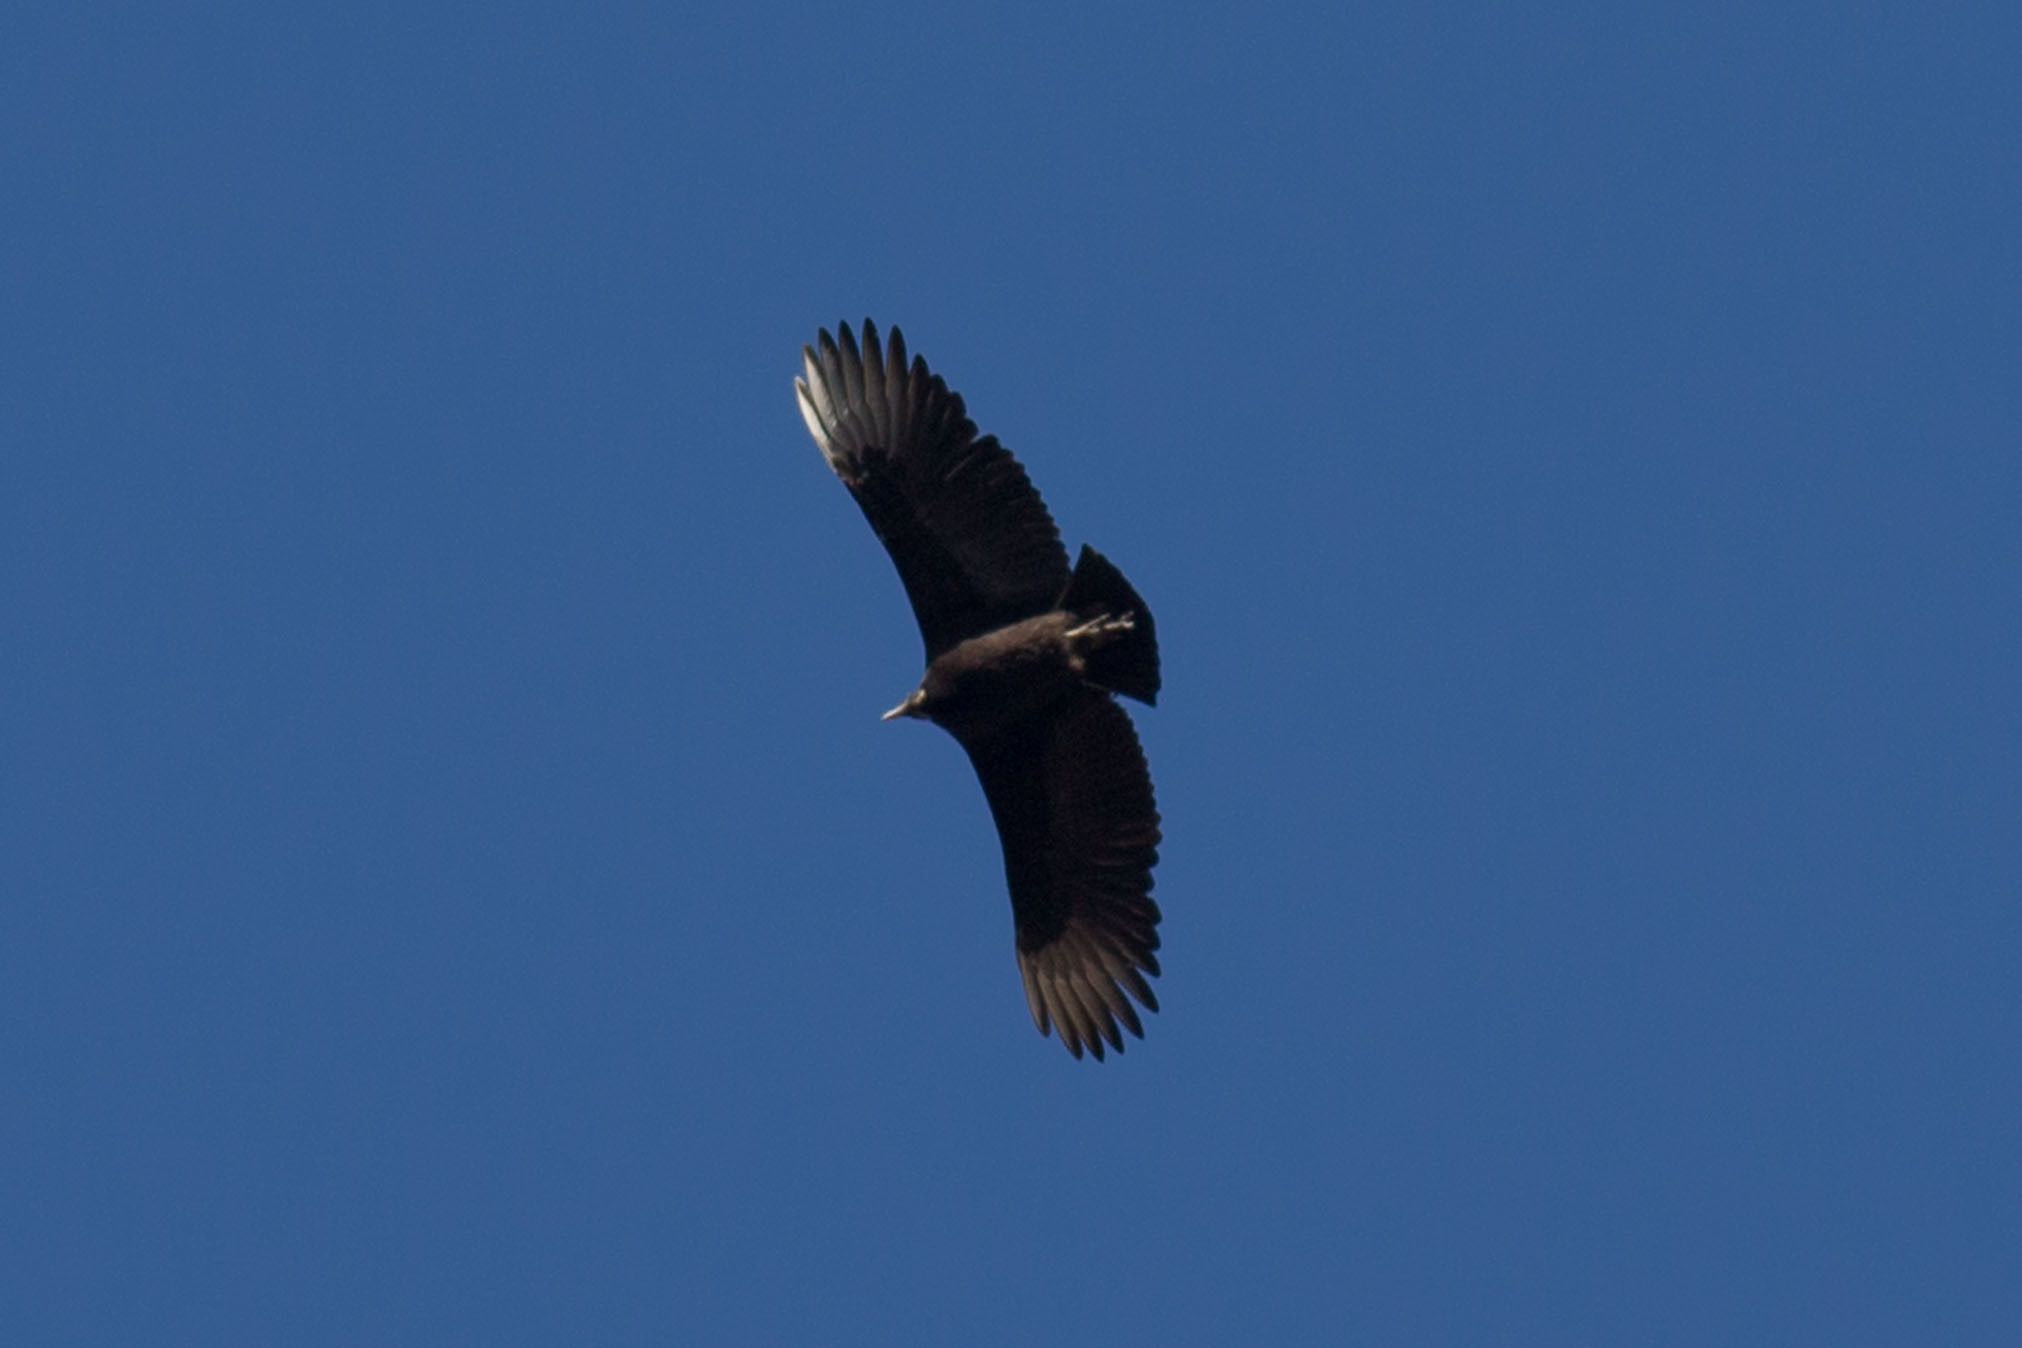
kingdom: Animalia
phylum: Chordata
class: Aves
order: Accipitriformes
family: Cathartidae
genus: Coragyps
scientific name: Coragyps atratus
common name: Black vulture
